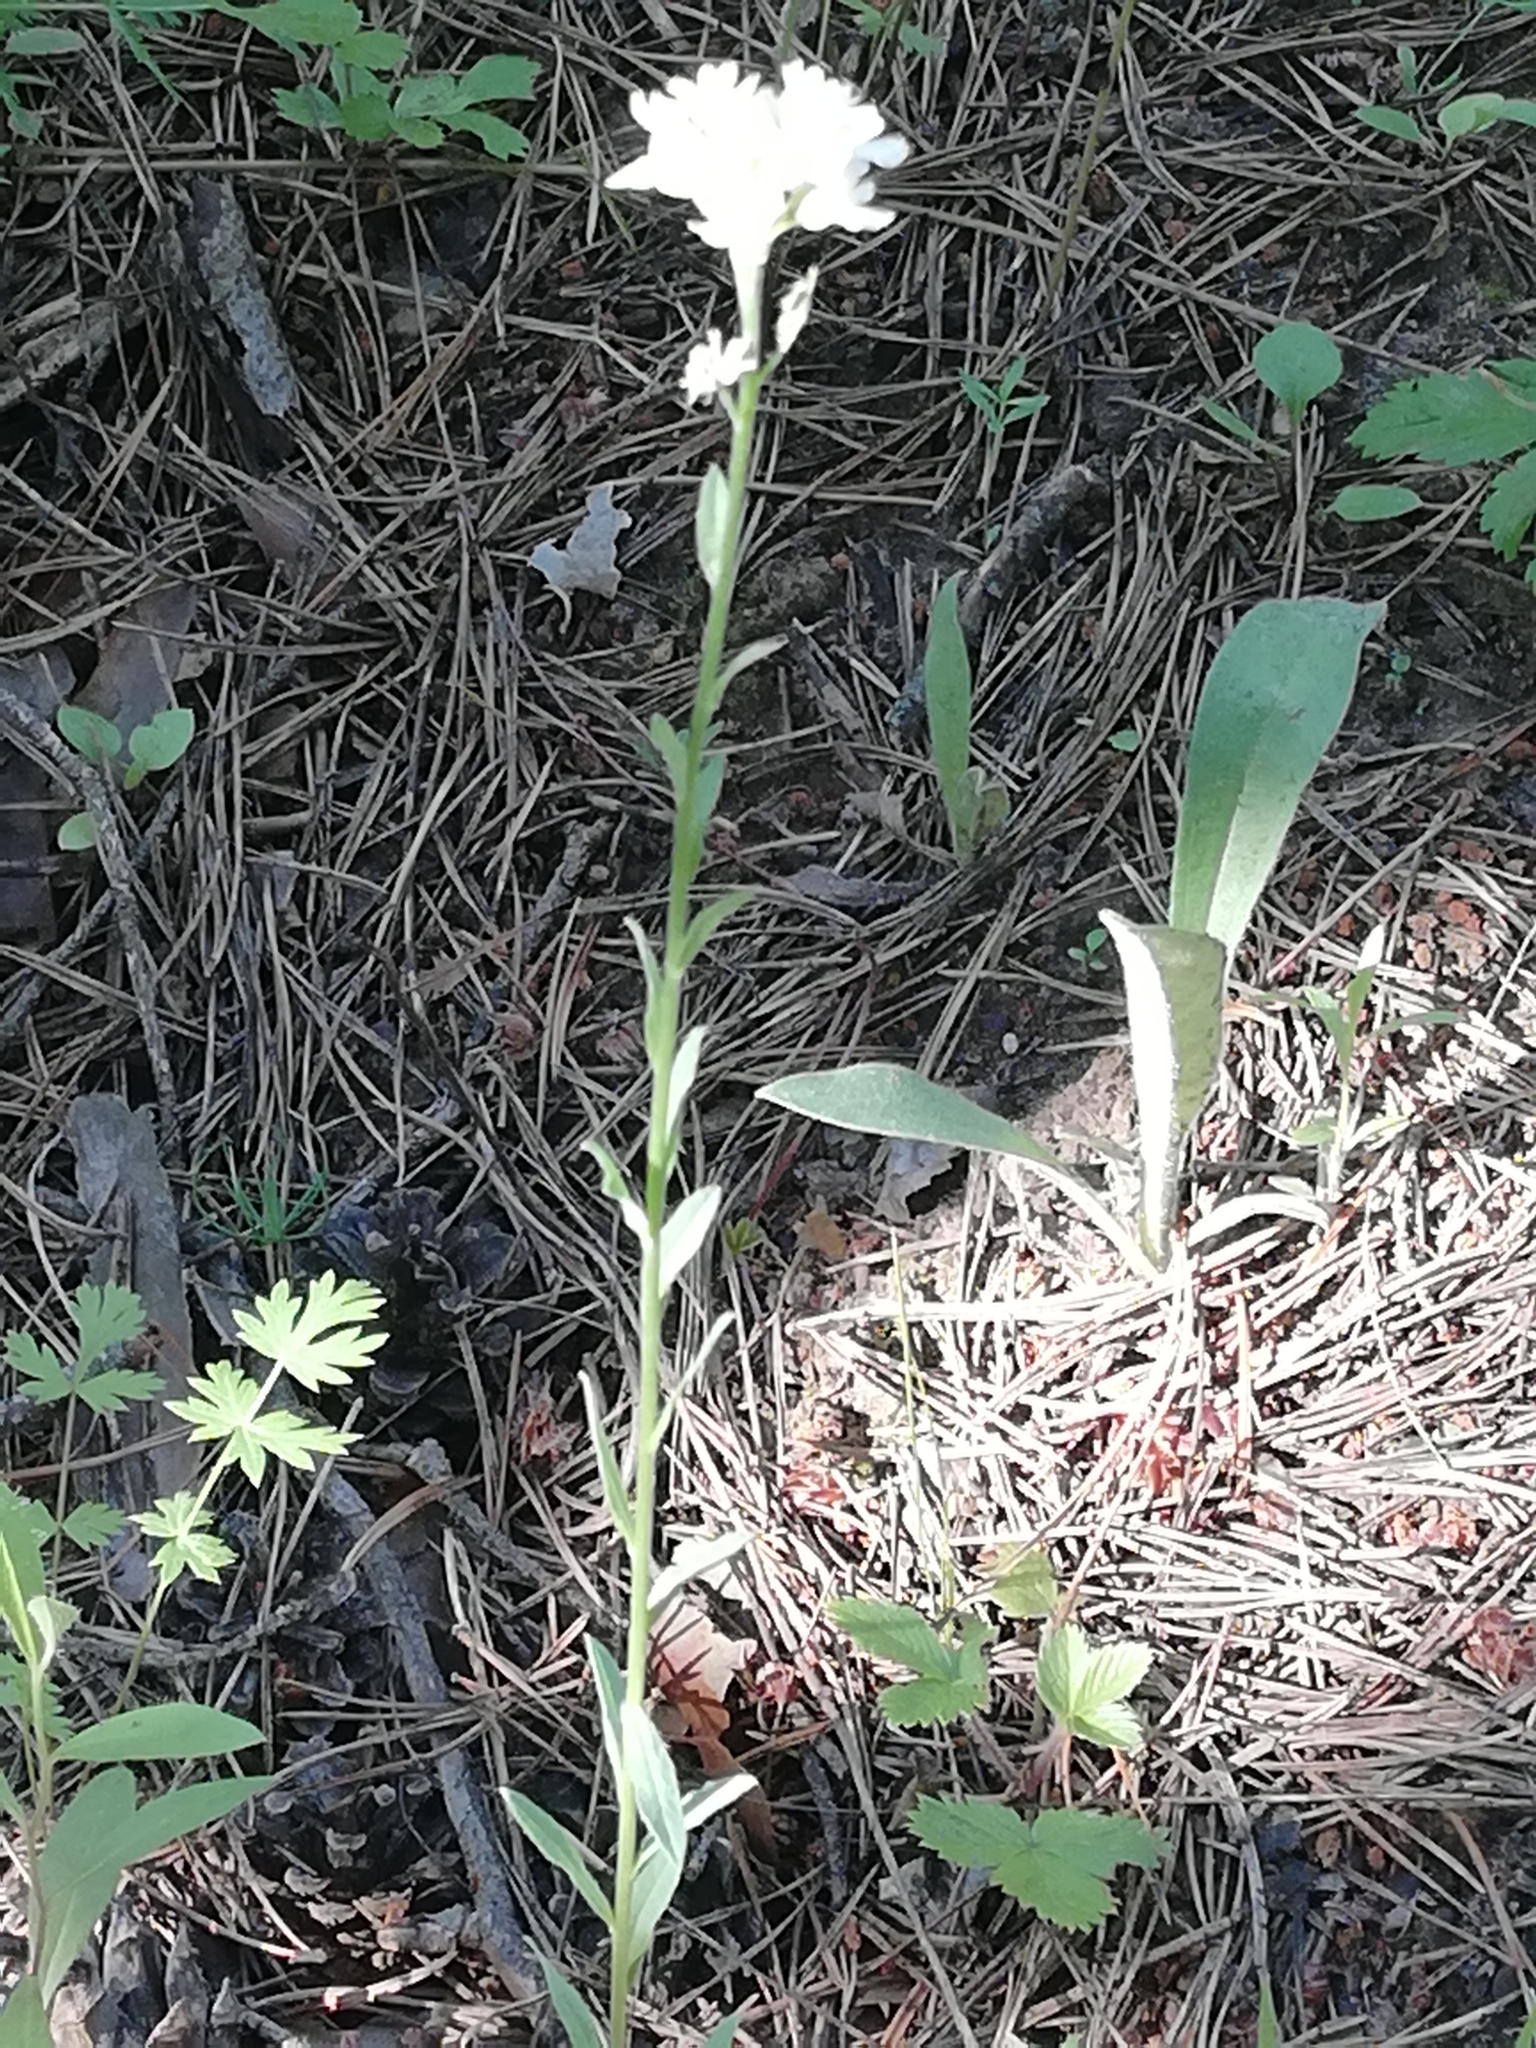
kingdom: Plantae
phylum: Tracheophyta
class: Magnoliopsida
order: Brassicales
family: Brassicaceae
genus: Berteroa
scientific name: Berteroa incana
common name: Hoary alison
